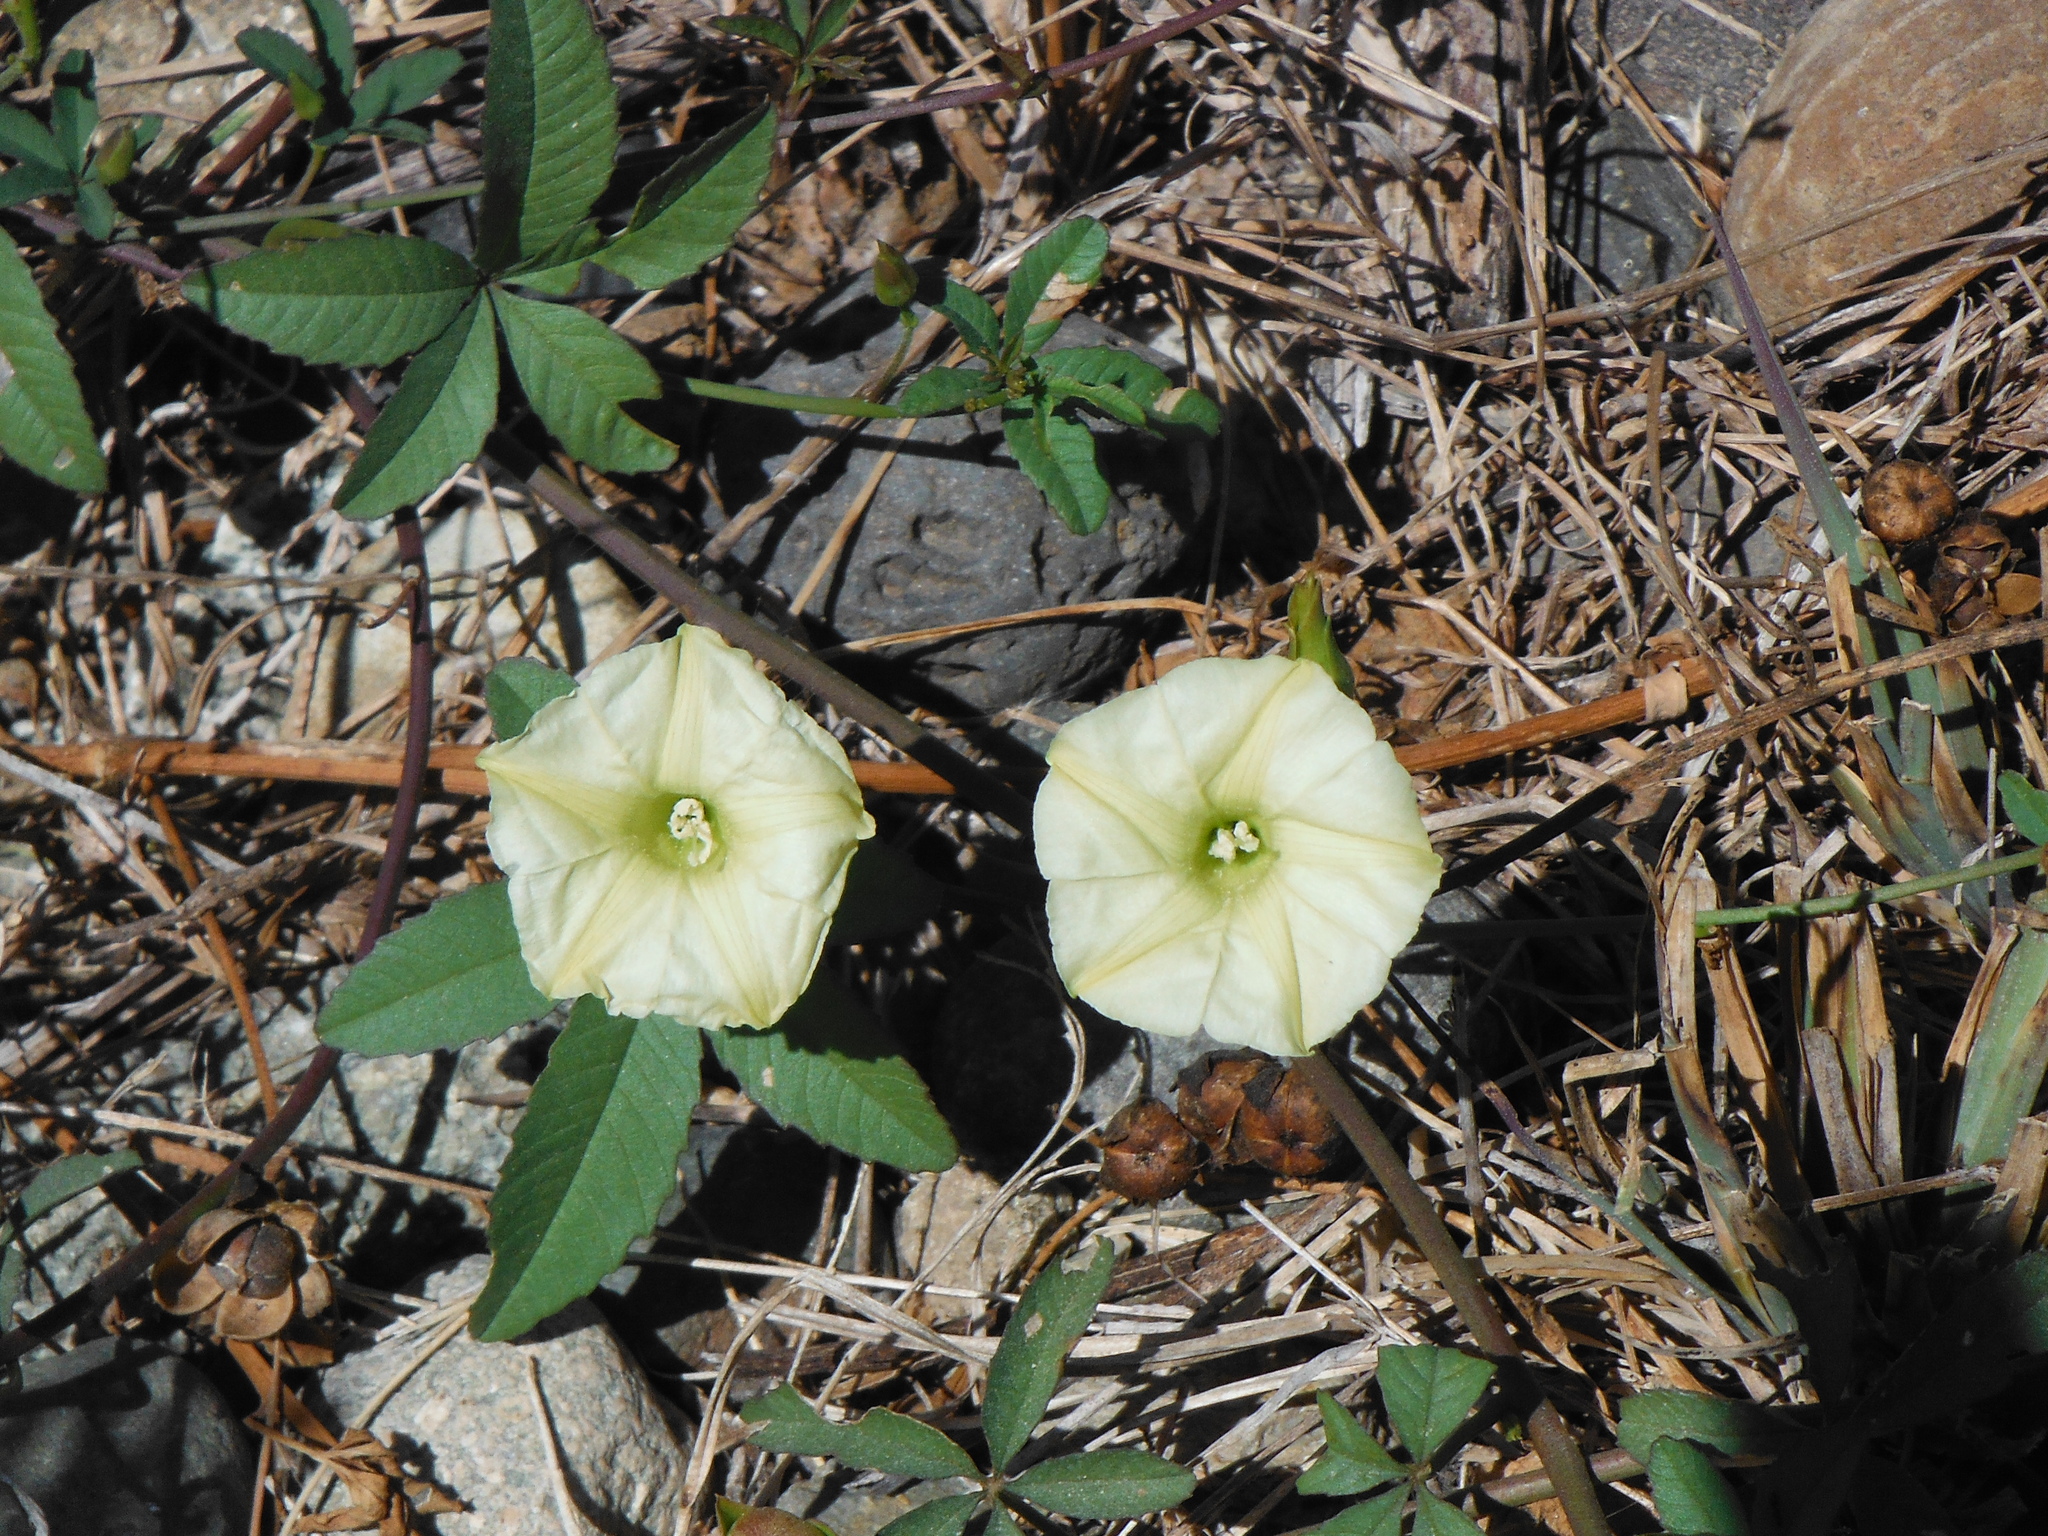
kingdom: Plantae
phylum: Tracheophyta
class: Magnoliopsida
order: Solanales
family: Convolvulaceae
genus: Distimake
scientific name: Distimake quinquefolius
